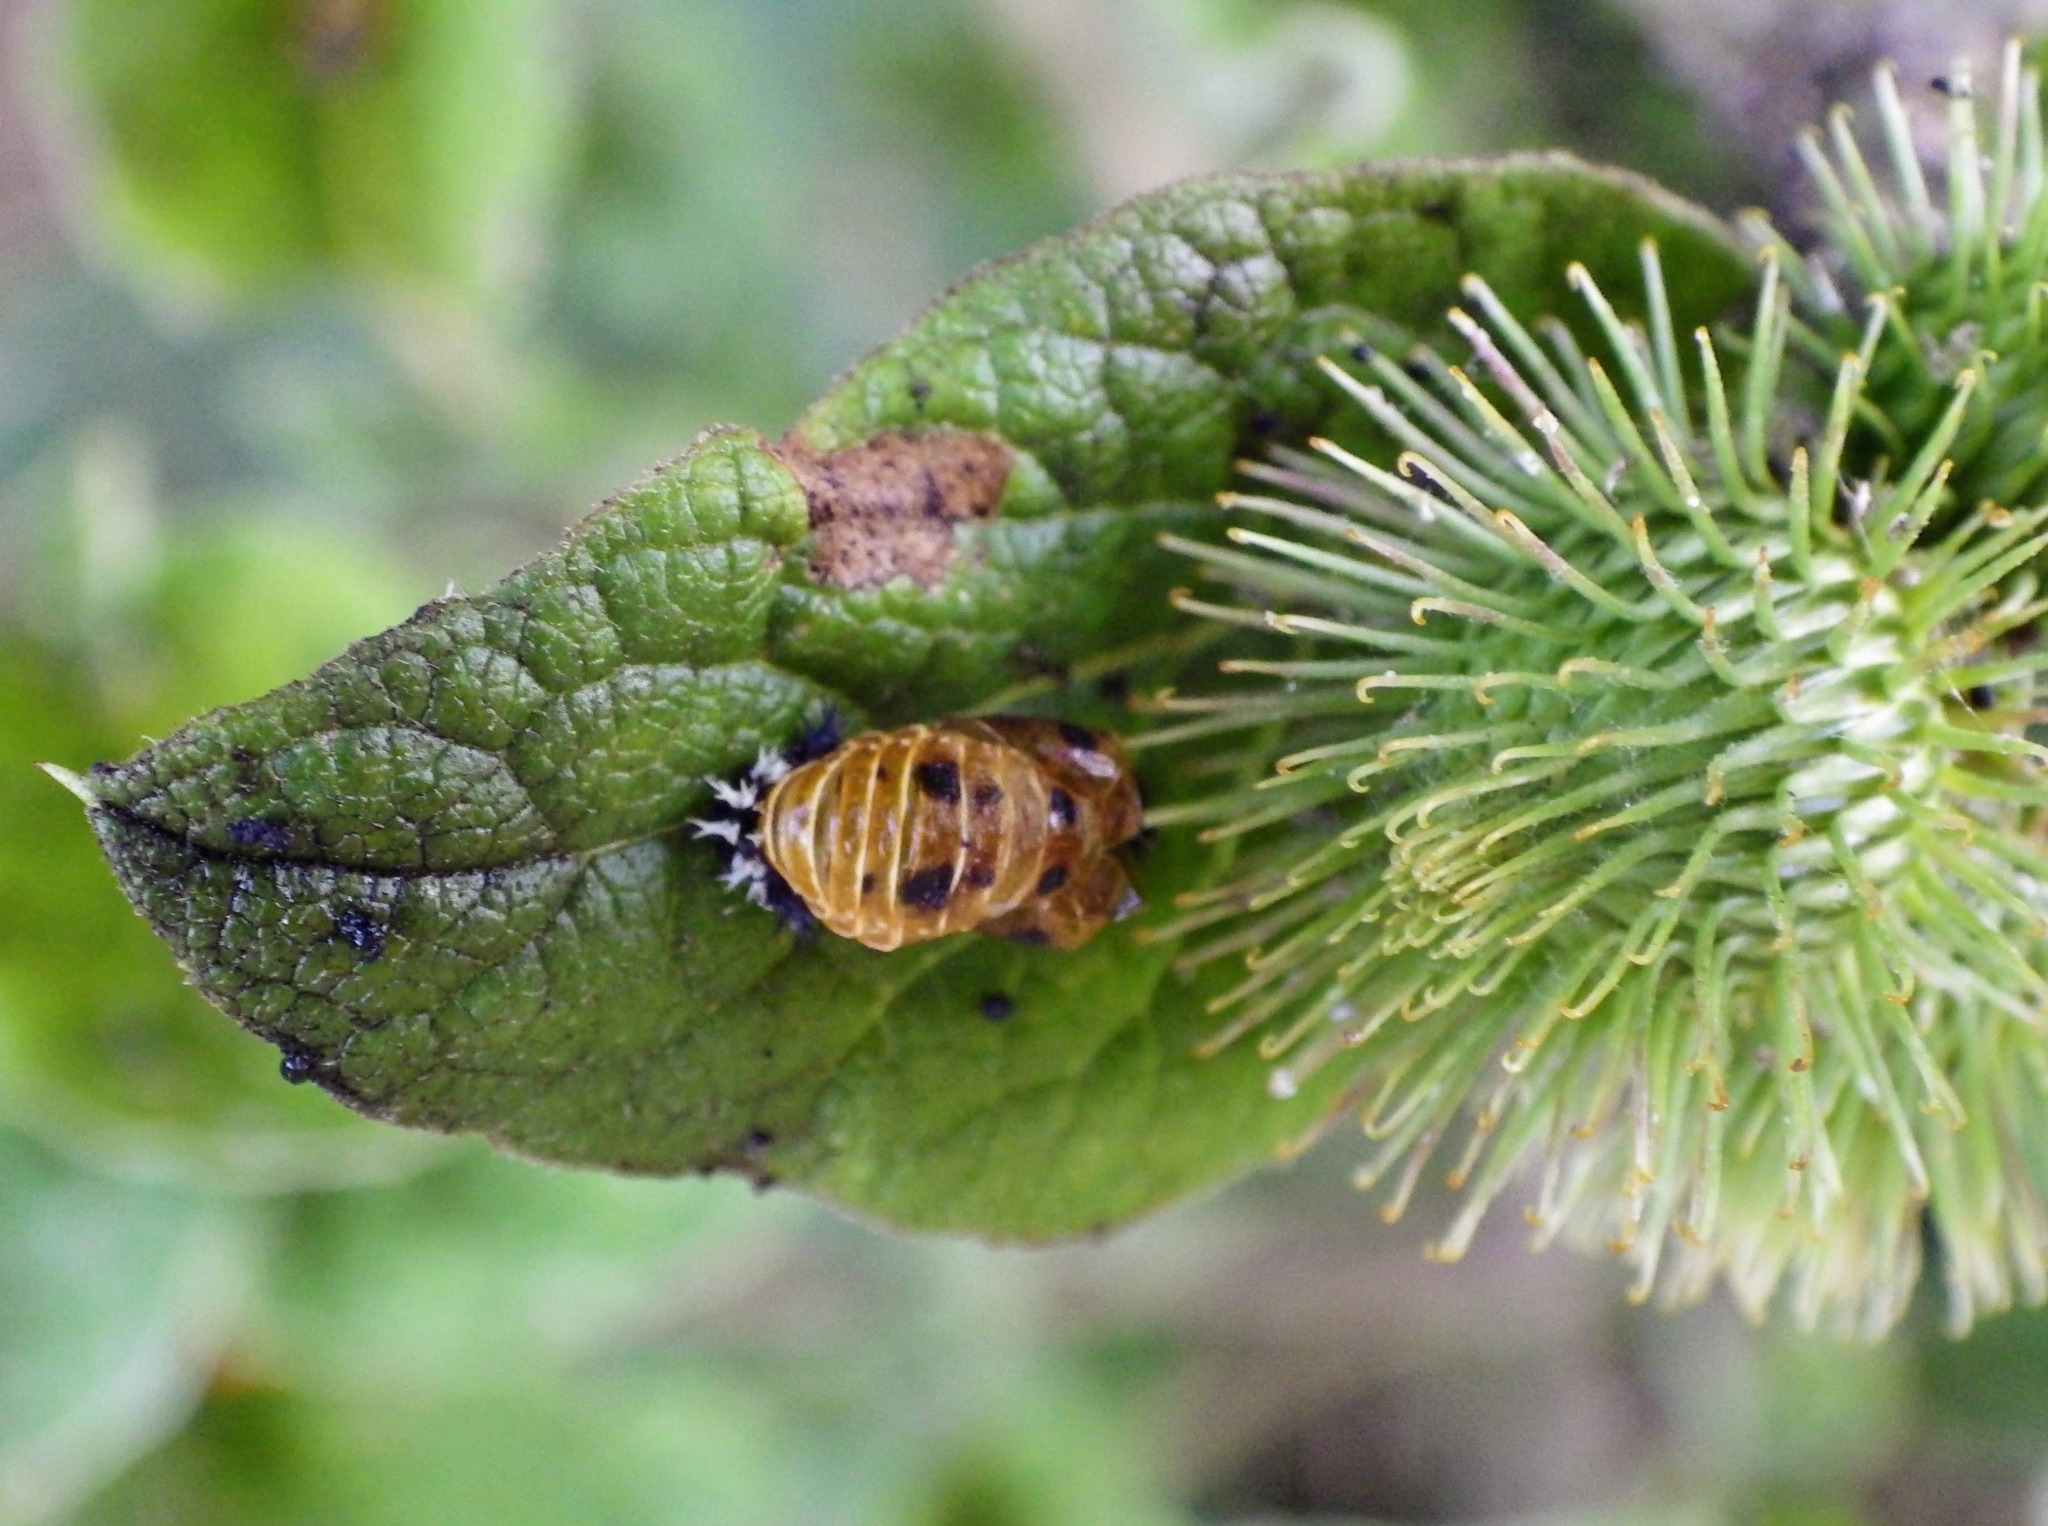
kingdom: Animalia
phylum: Arthropoda
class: Insecta
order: Coleoptera
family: Coccinellidae
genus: Harmonia
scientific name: Harmonia axyridis
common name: Harlequin ladybird
